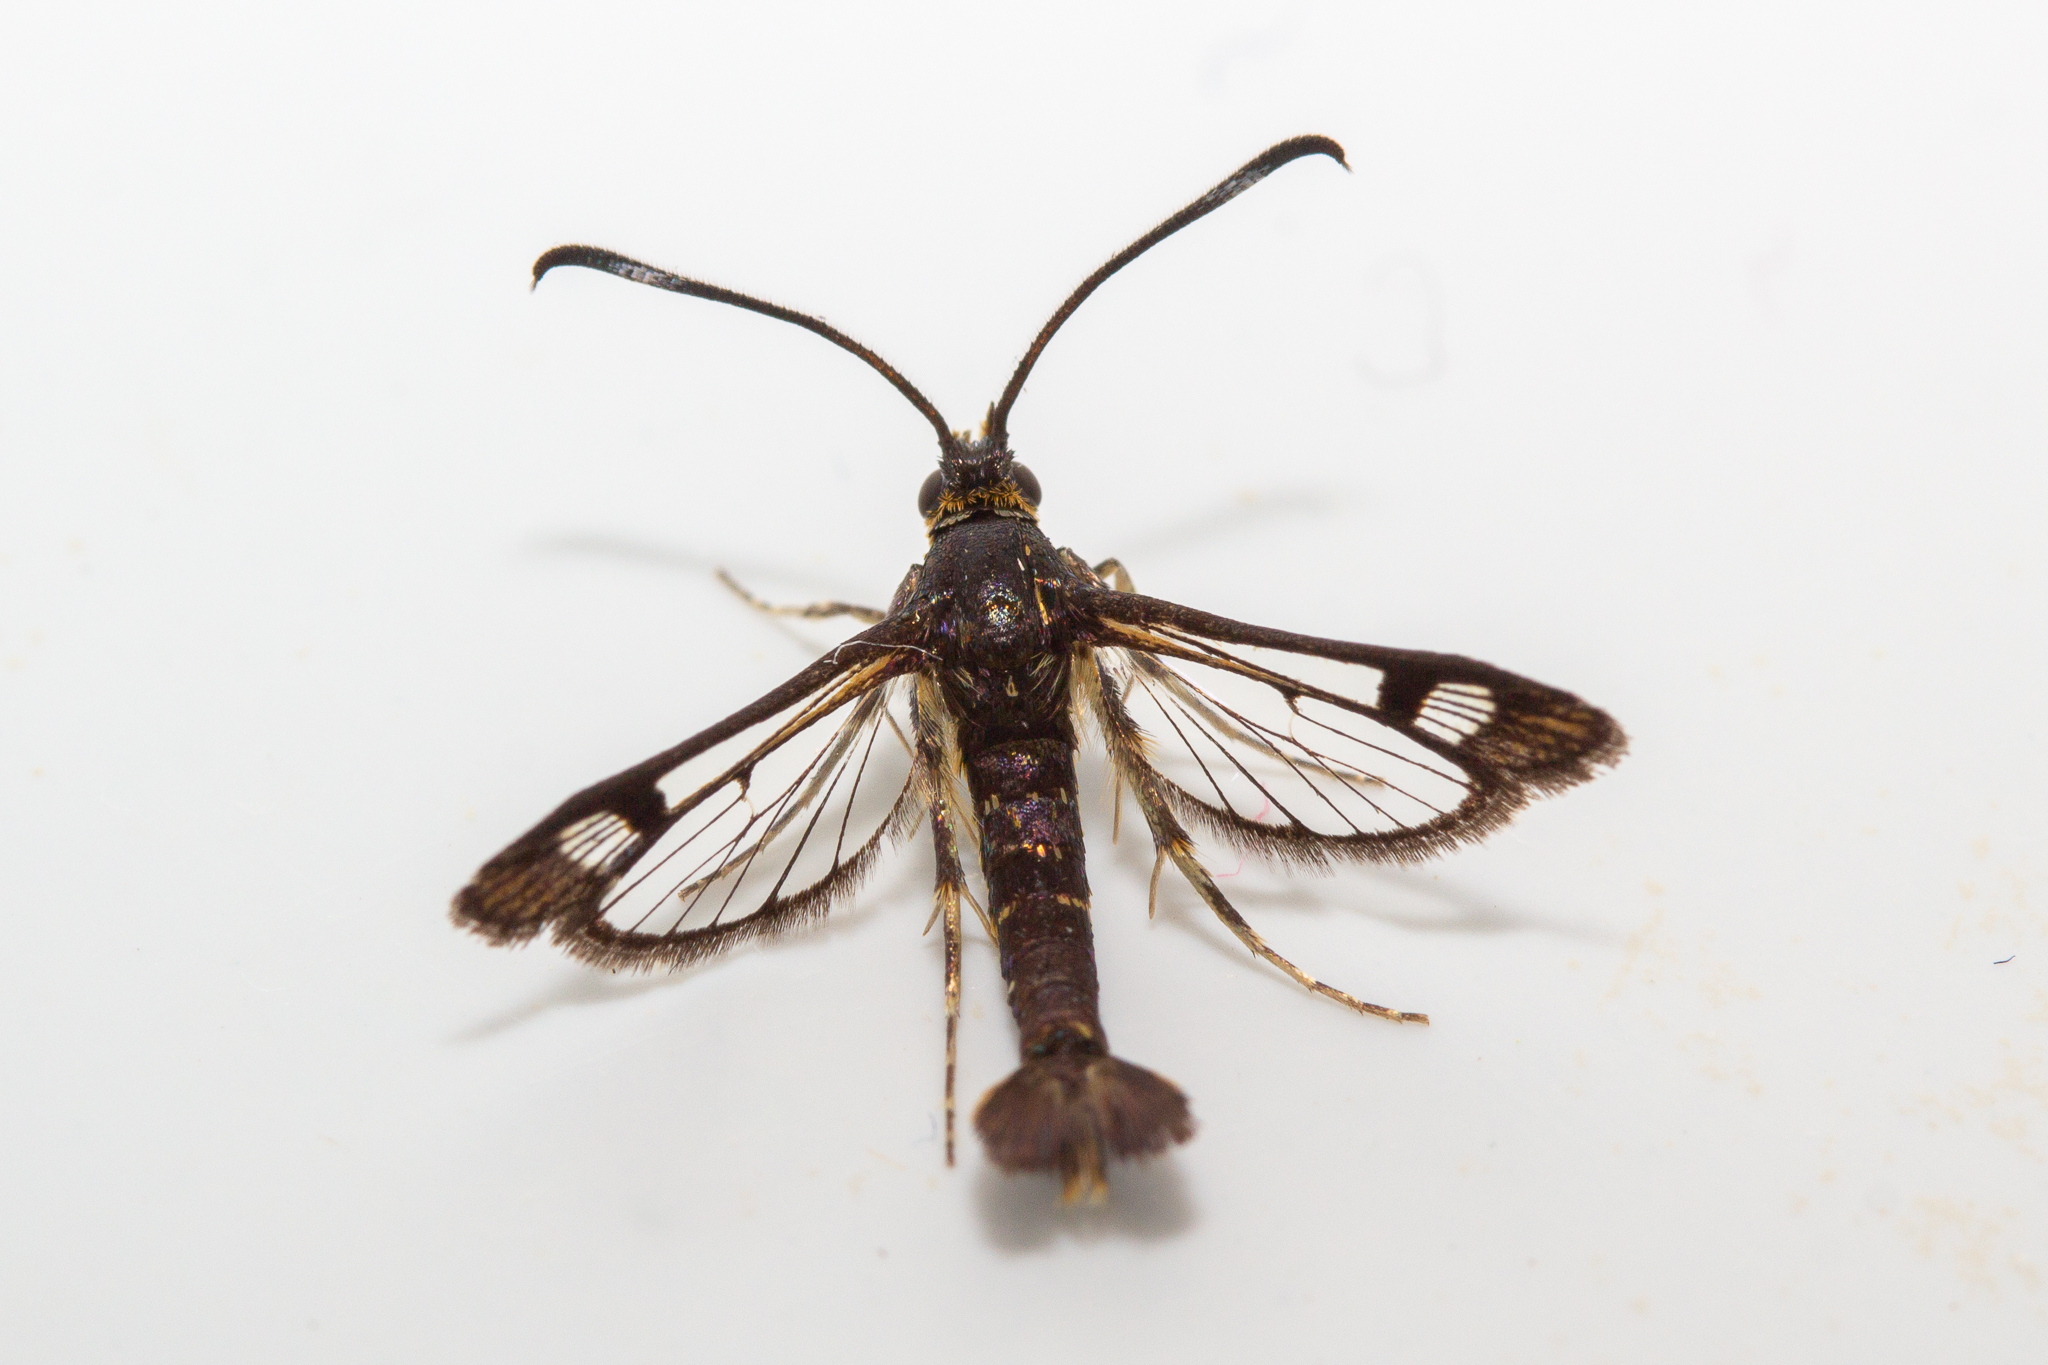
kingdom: Animalia
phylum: Arthropoda
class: Insecta
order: Lepidoptera
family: Sesiidae
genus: Carmenta
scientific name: Carmenta ithacae
